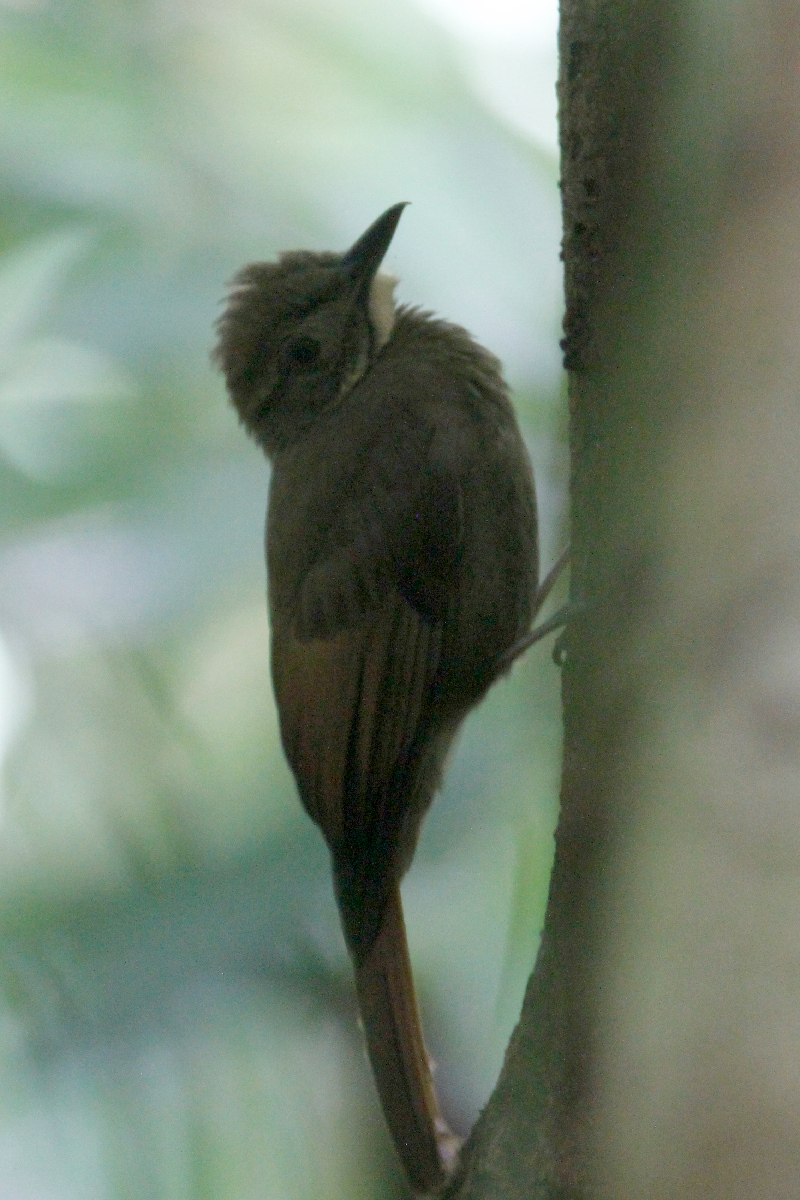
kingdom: Animalia
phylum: Chordata
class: Aves
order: Passeriformes
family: Furnariidae
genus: Dendrocincla
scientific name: Dendrocincla anabatina
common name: Tawny-winged woodcreeper
